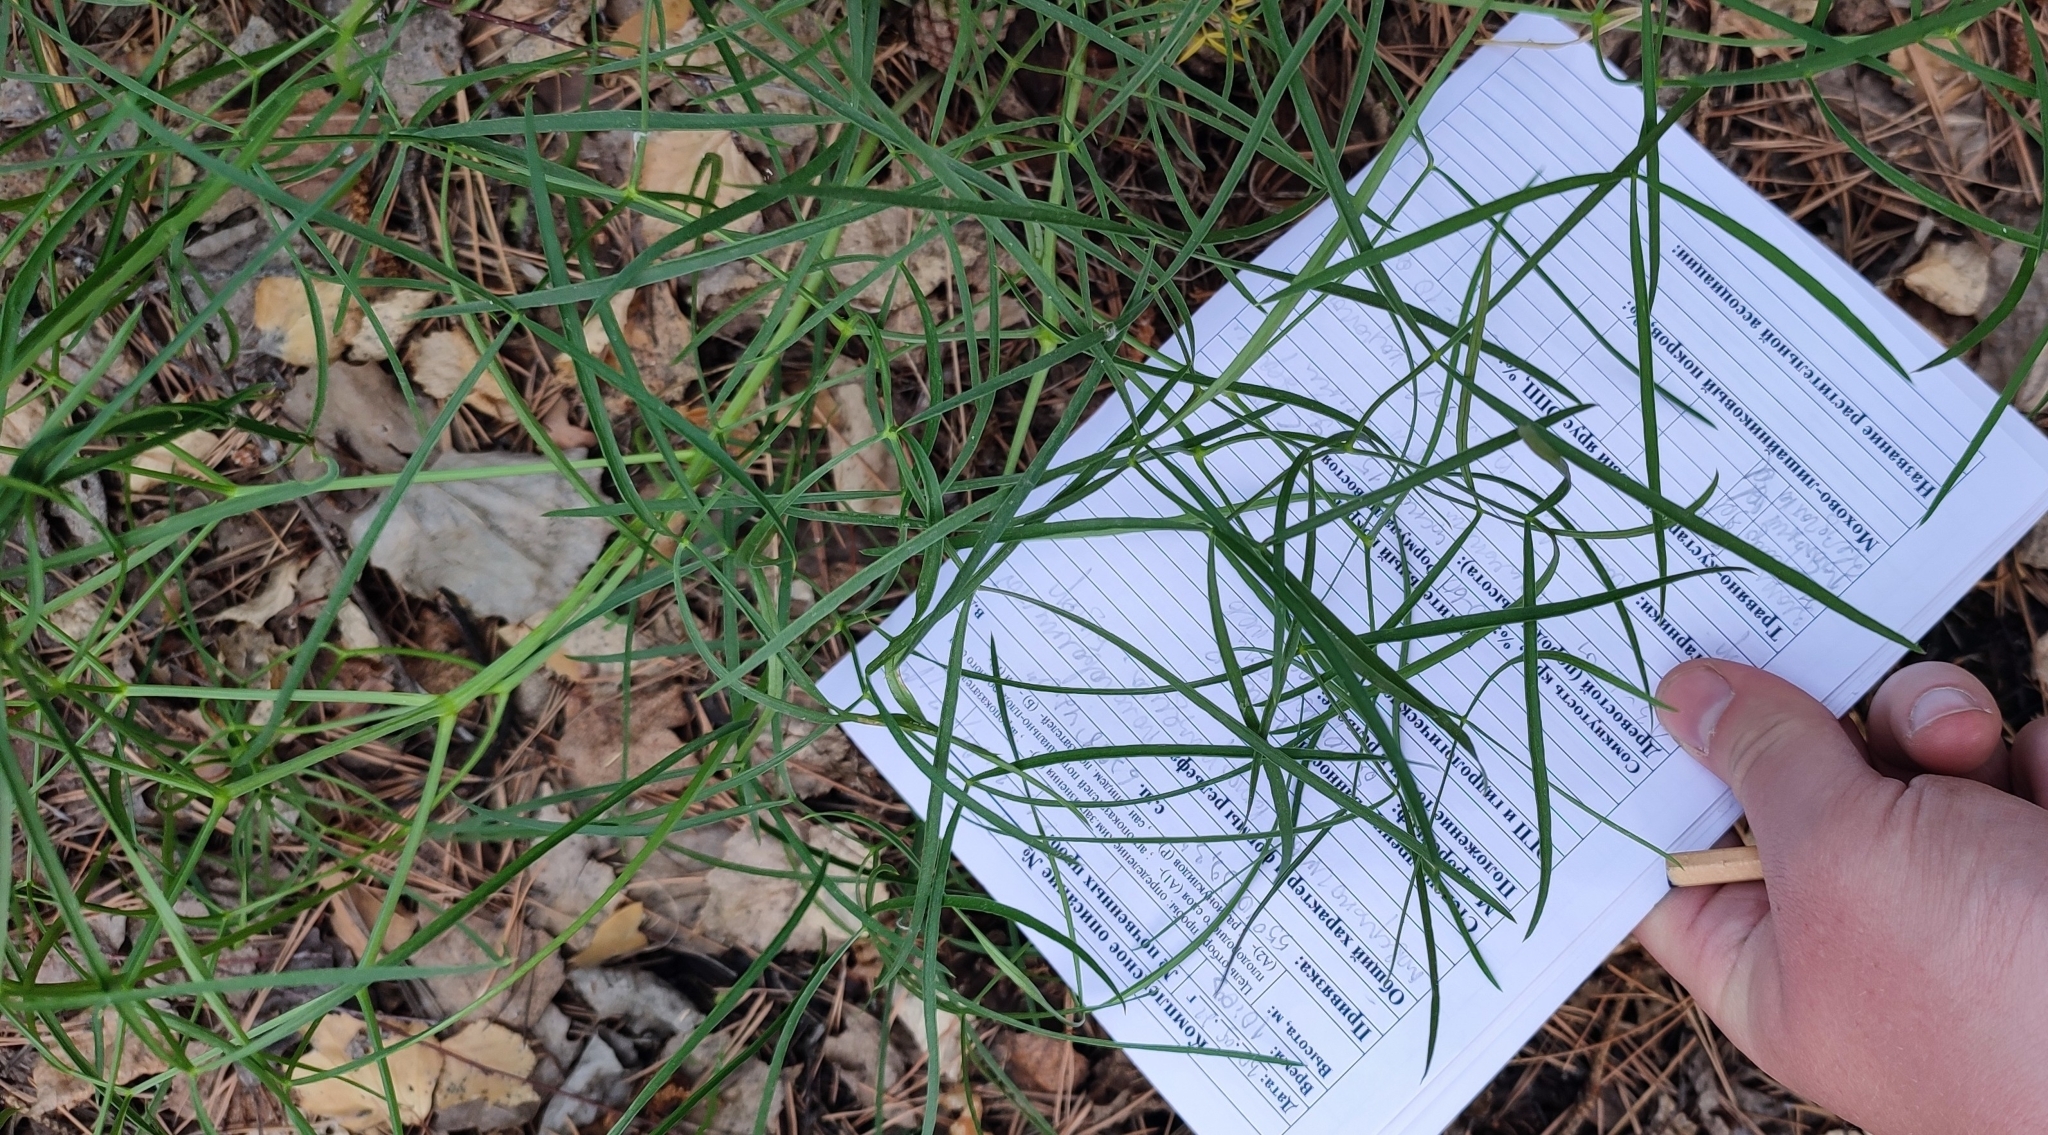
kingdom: Plantae
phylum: Tracheophyta
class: Magnoliopsida
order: Apiales
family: Apiaceae
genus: Cenolophium
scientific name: Cenolophium fischeri
